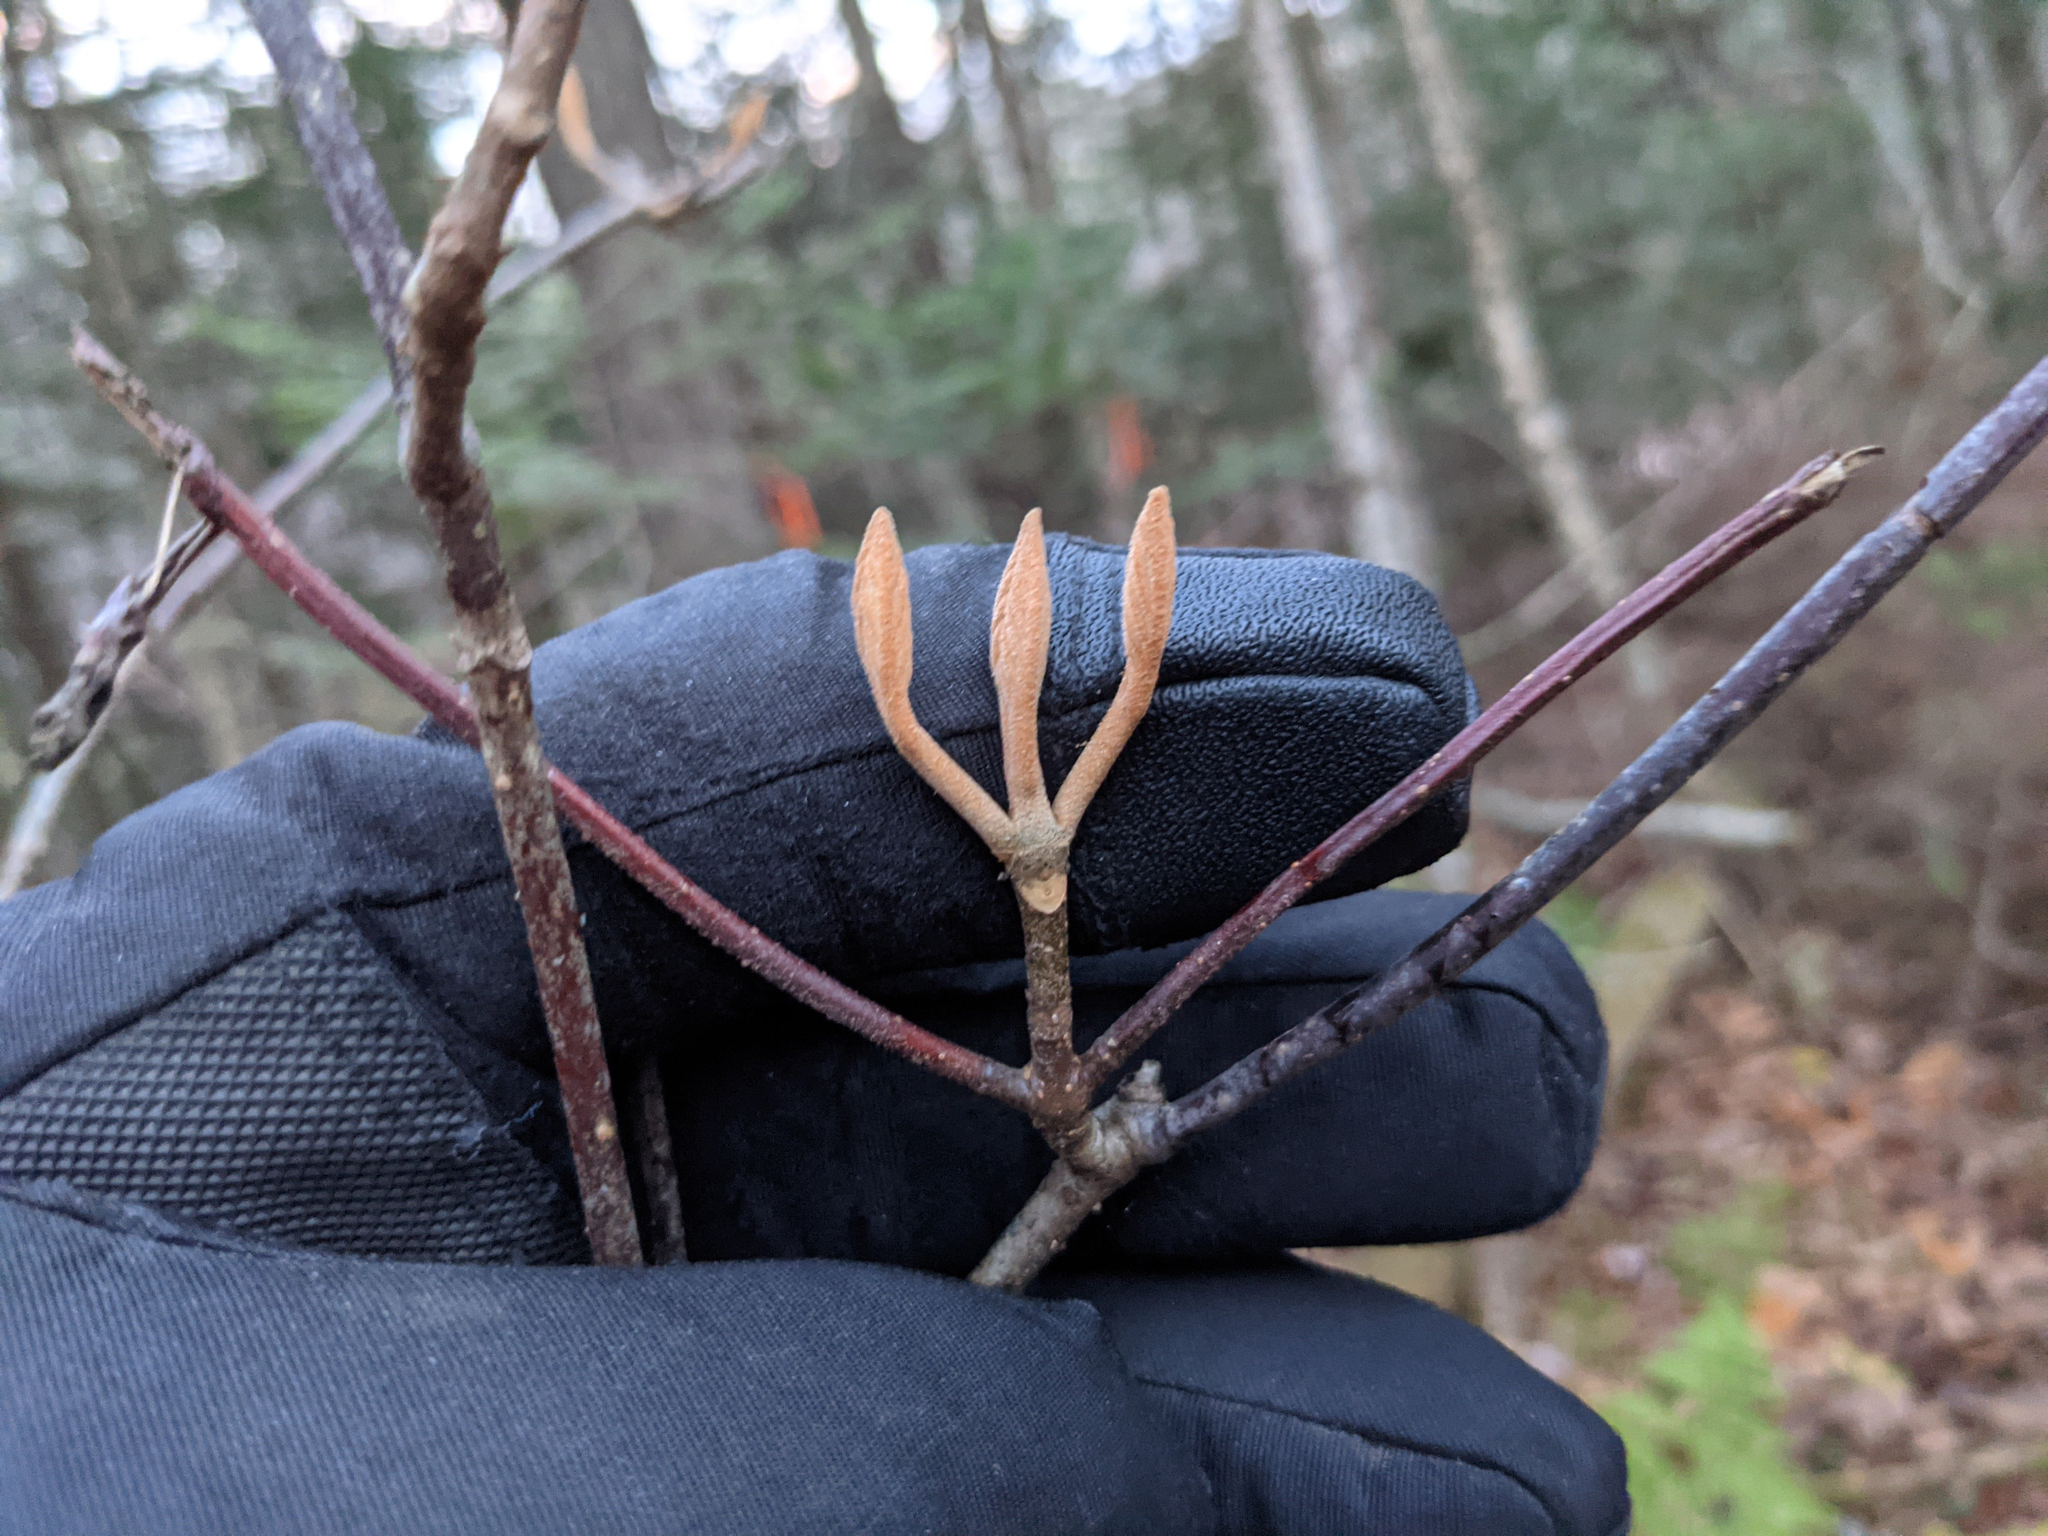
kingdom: Plantae
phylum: Tracheophyta
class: Magnoliopsida
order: Dipsacales
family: Viburnaceae
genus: Viburnum
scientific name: Viburnum lantanoides
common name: Hobblebush
